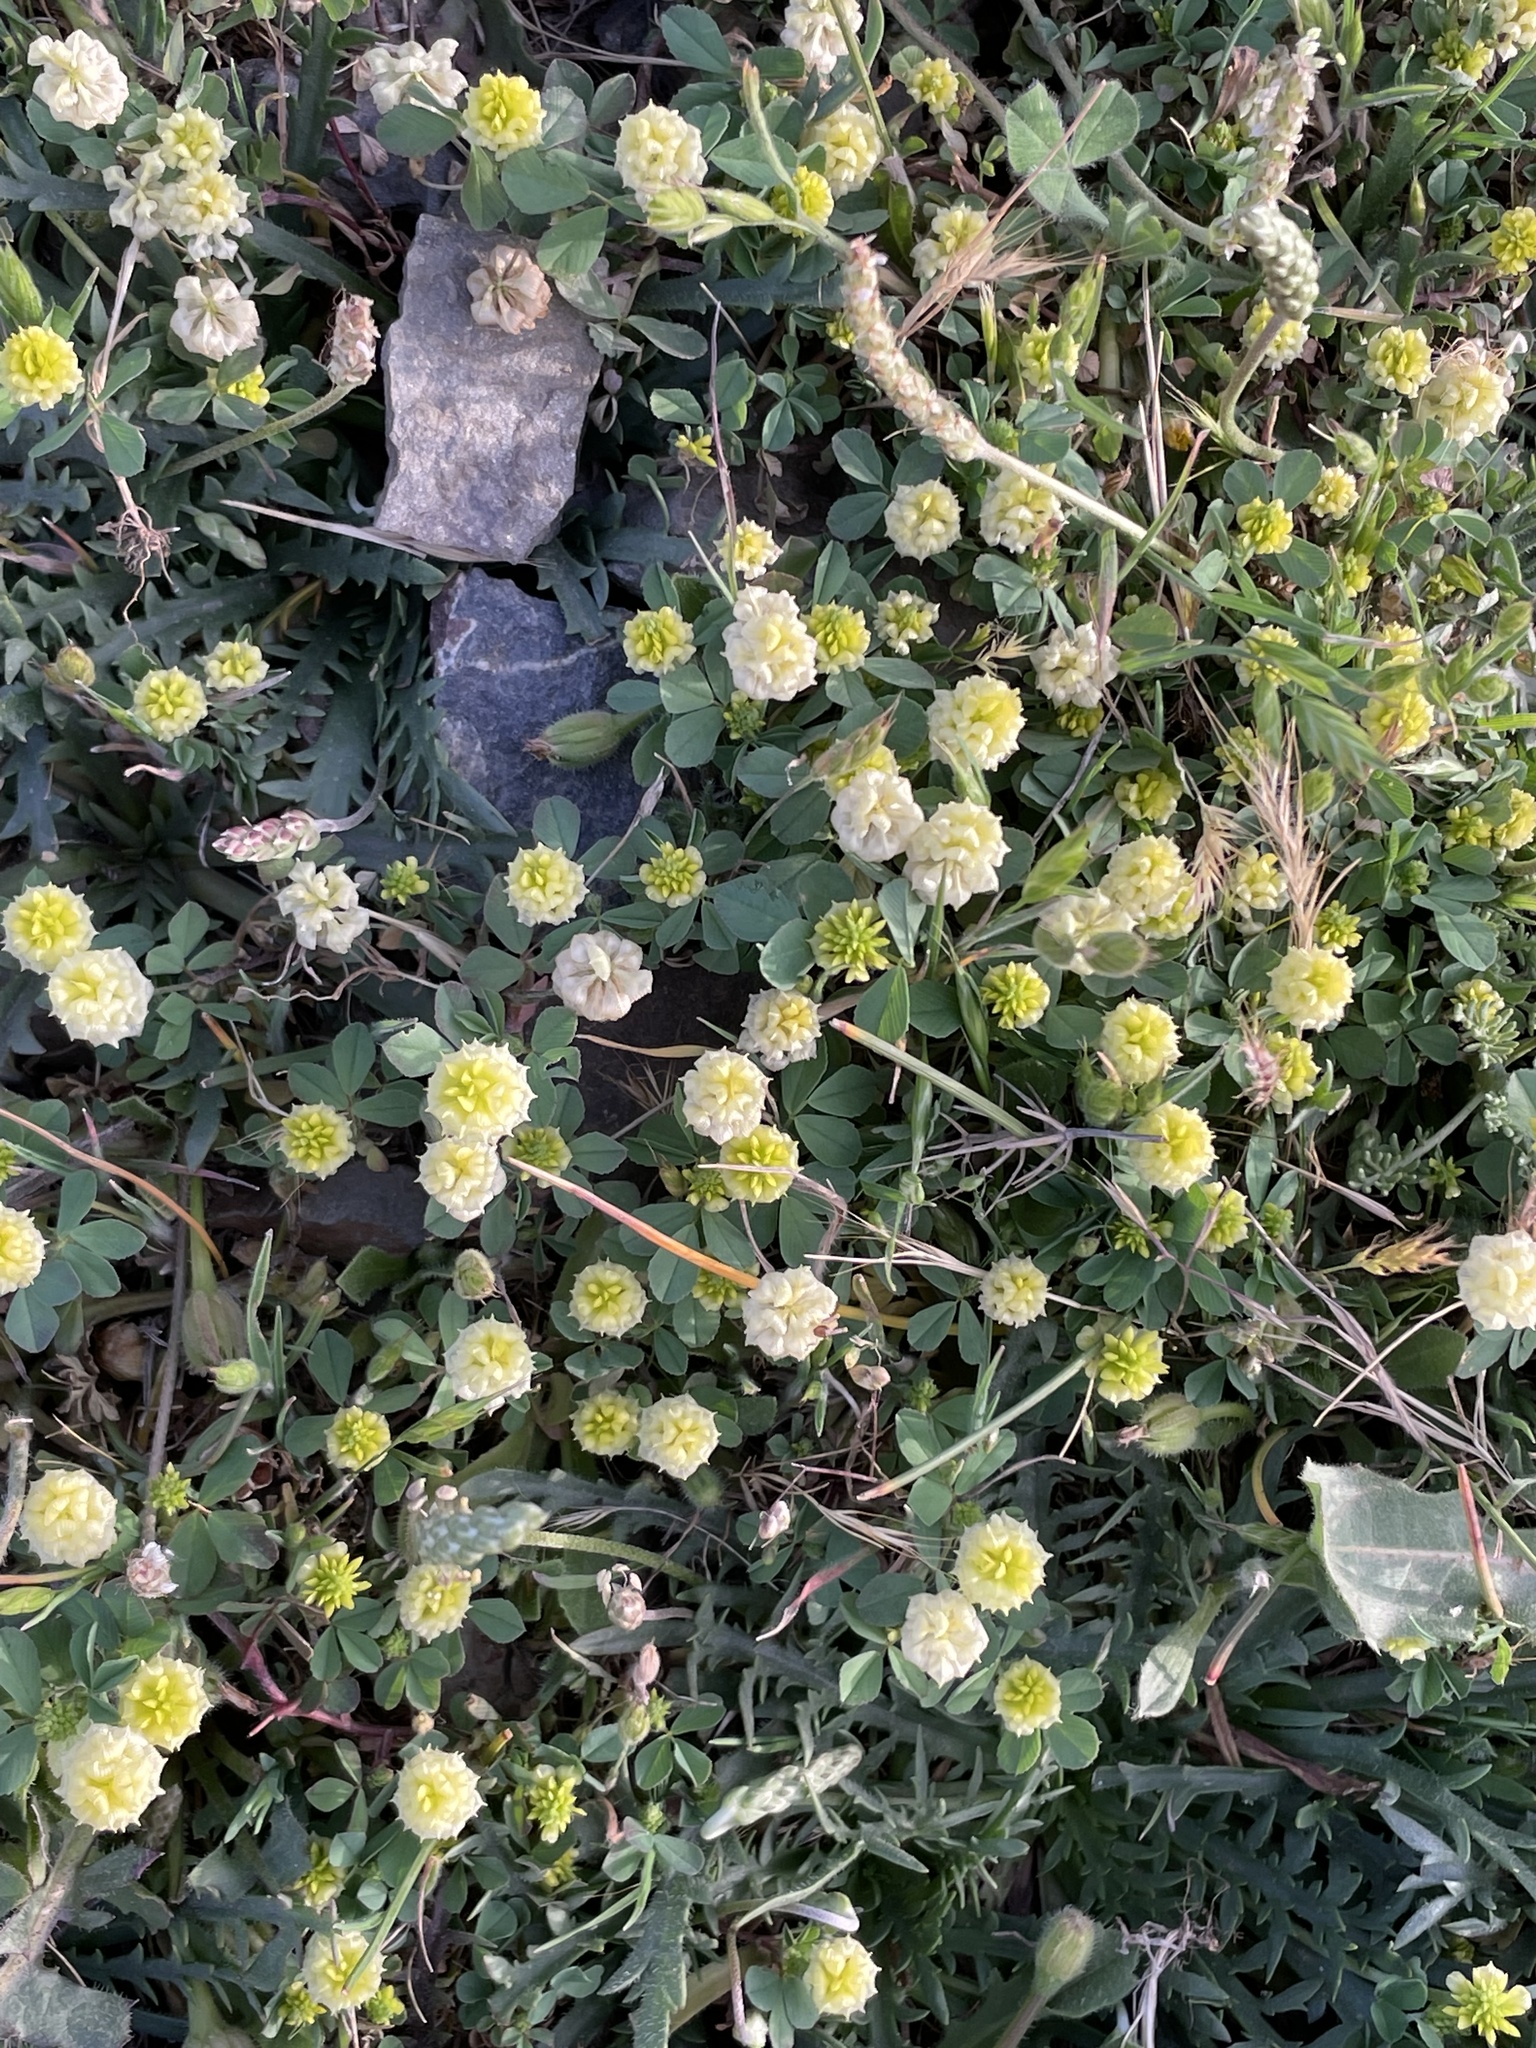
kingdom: Plantae
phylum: Tracheophyta
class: Magnoliopsida
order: Fabales
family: Fabaceae
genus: Trifolium
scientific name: Trifolium campestre
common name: Field clover
